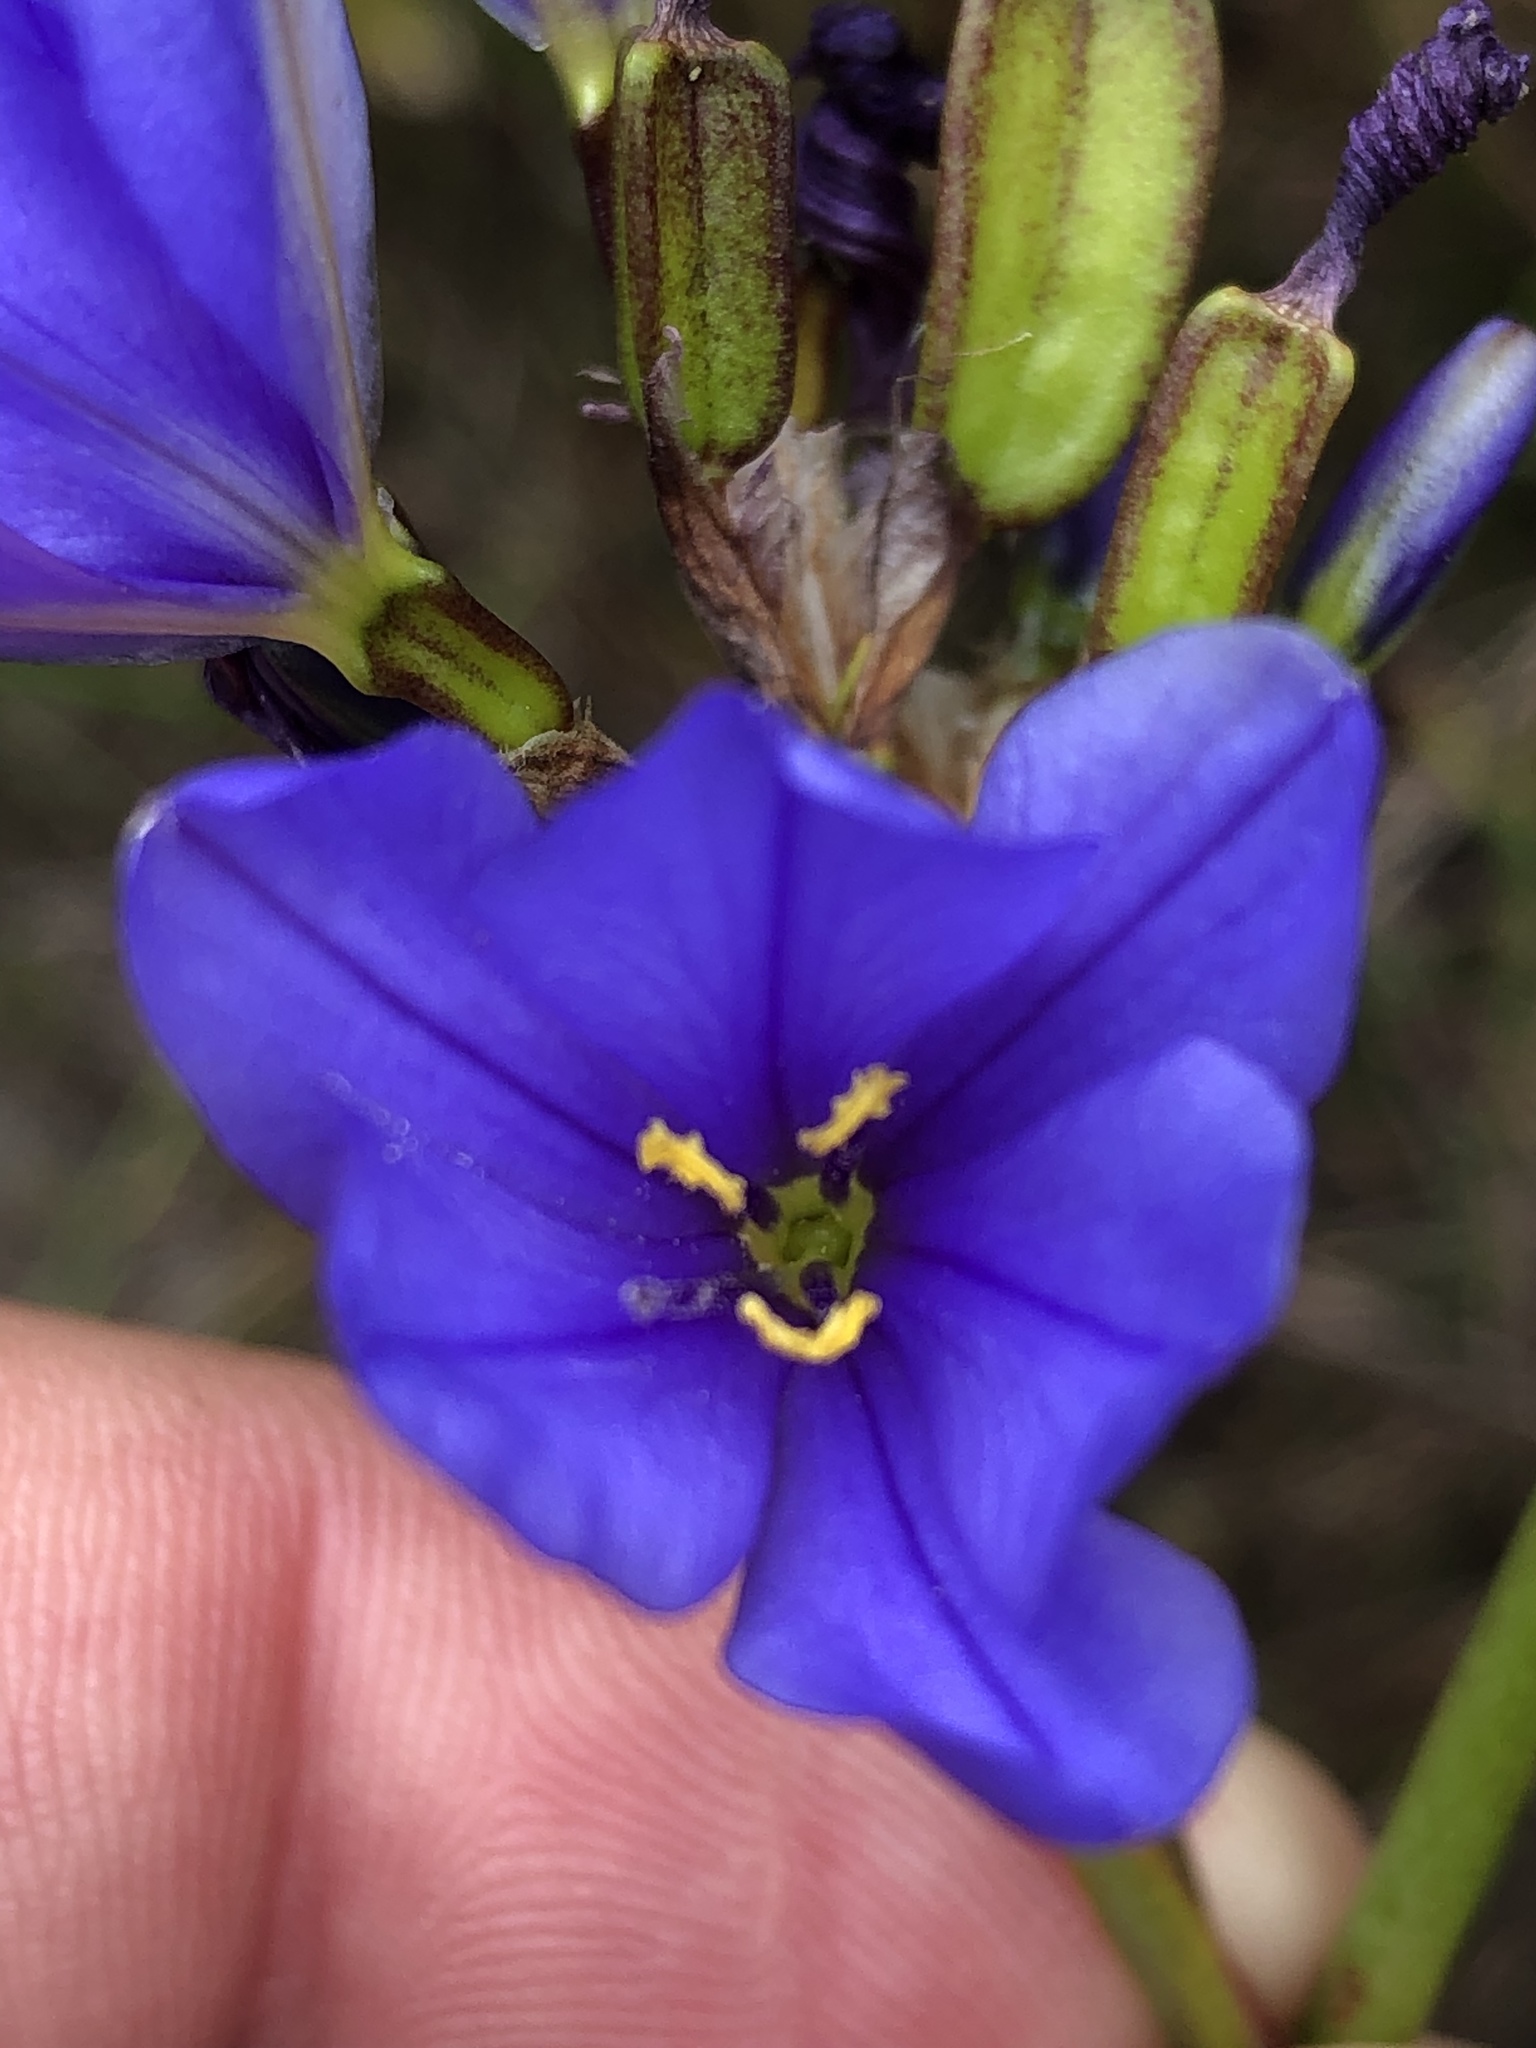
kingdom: Plantae
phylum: Tracheophyta
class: Liliopsida
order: Asparagales
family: Iridaceae
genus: Aristea
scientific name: Aristea bakeri
